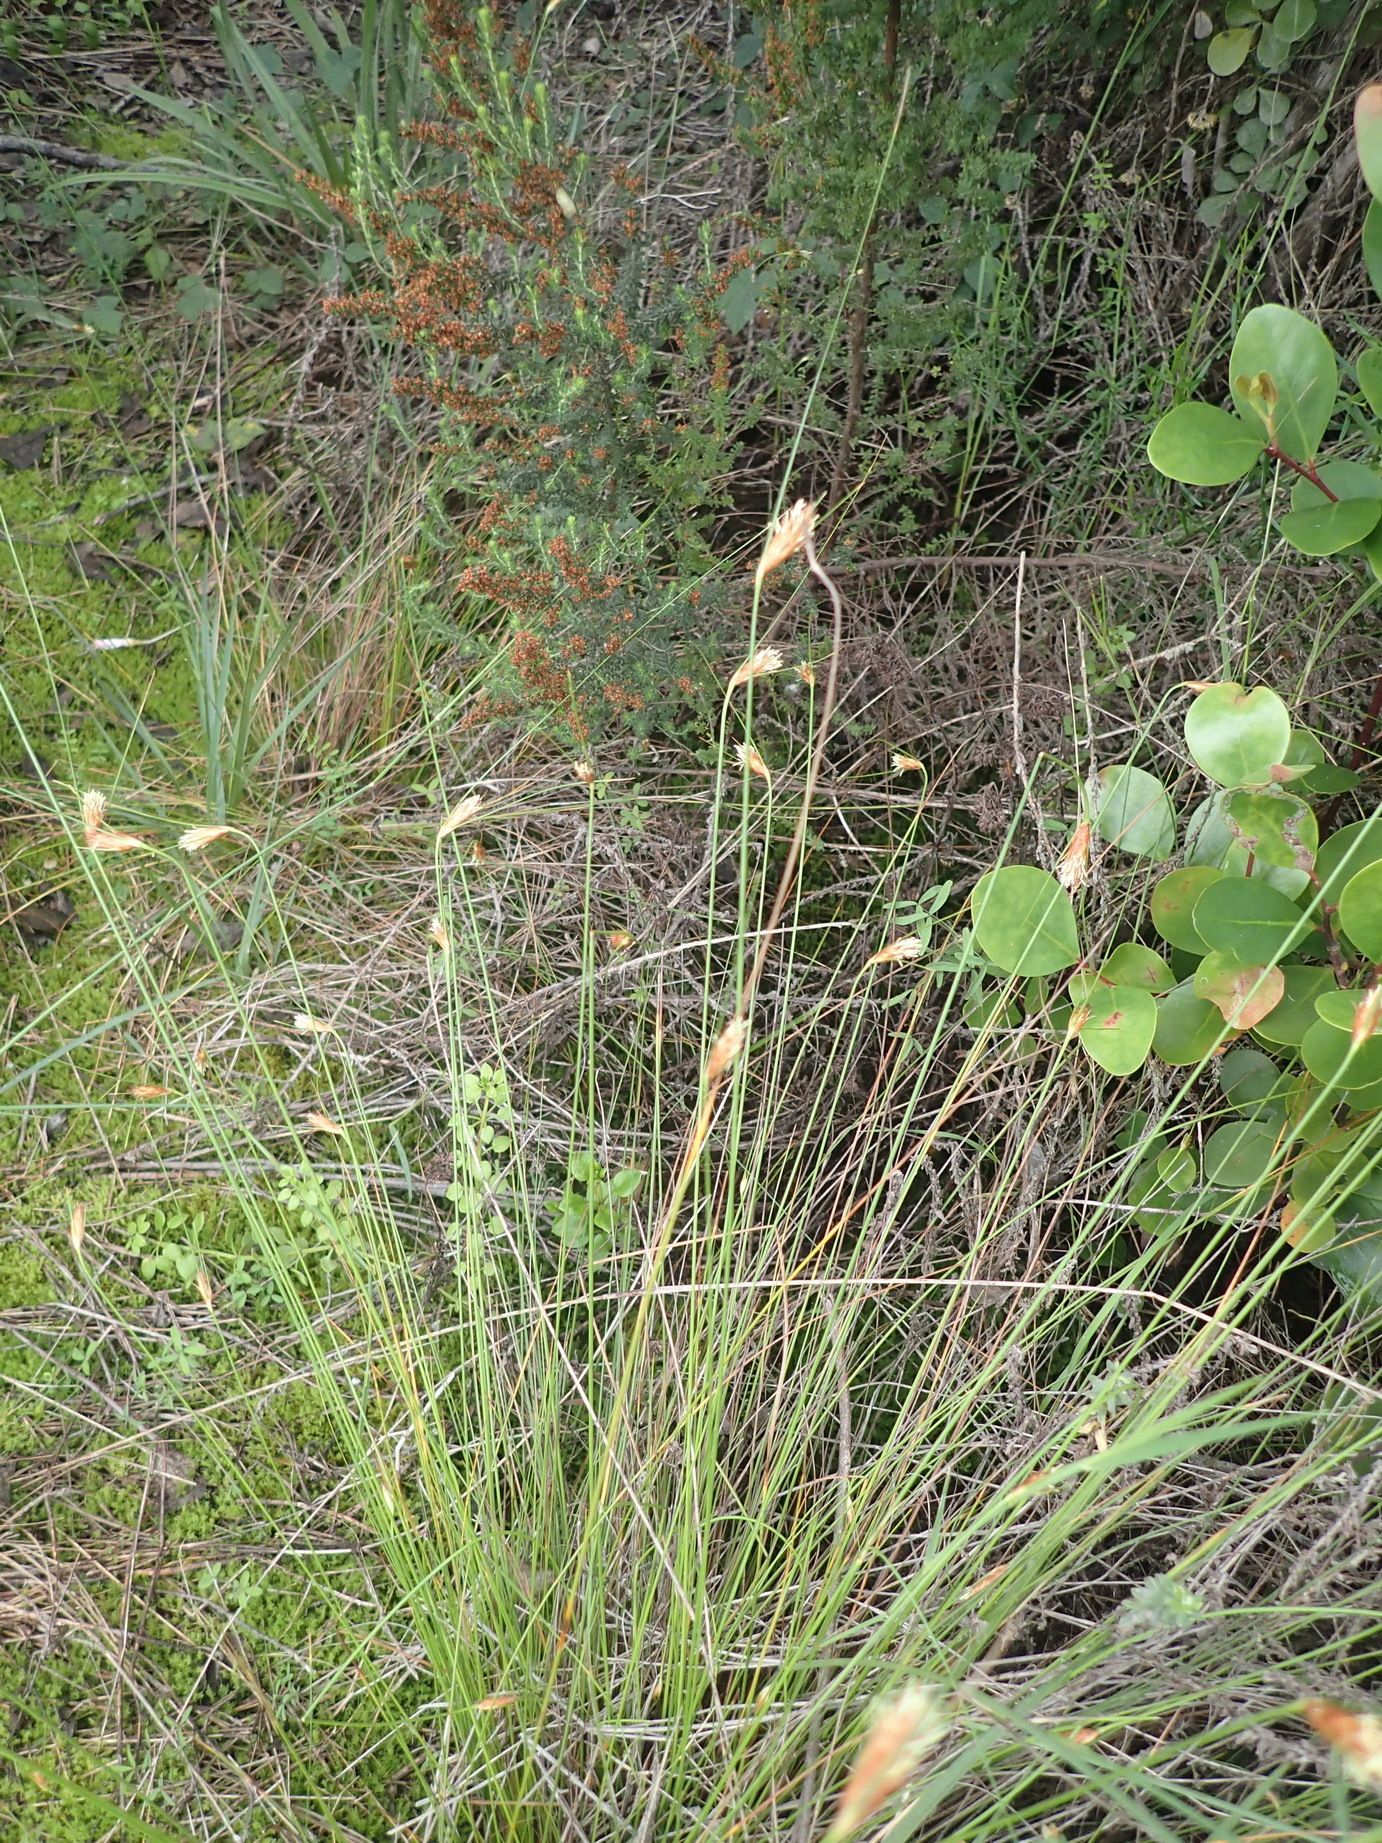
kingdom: Plantae
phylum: Tracheophyta
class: Liliopsida
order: Poales
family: Cyperaceae
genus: Ficinia
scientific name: Ficinia nigrescens
